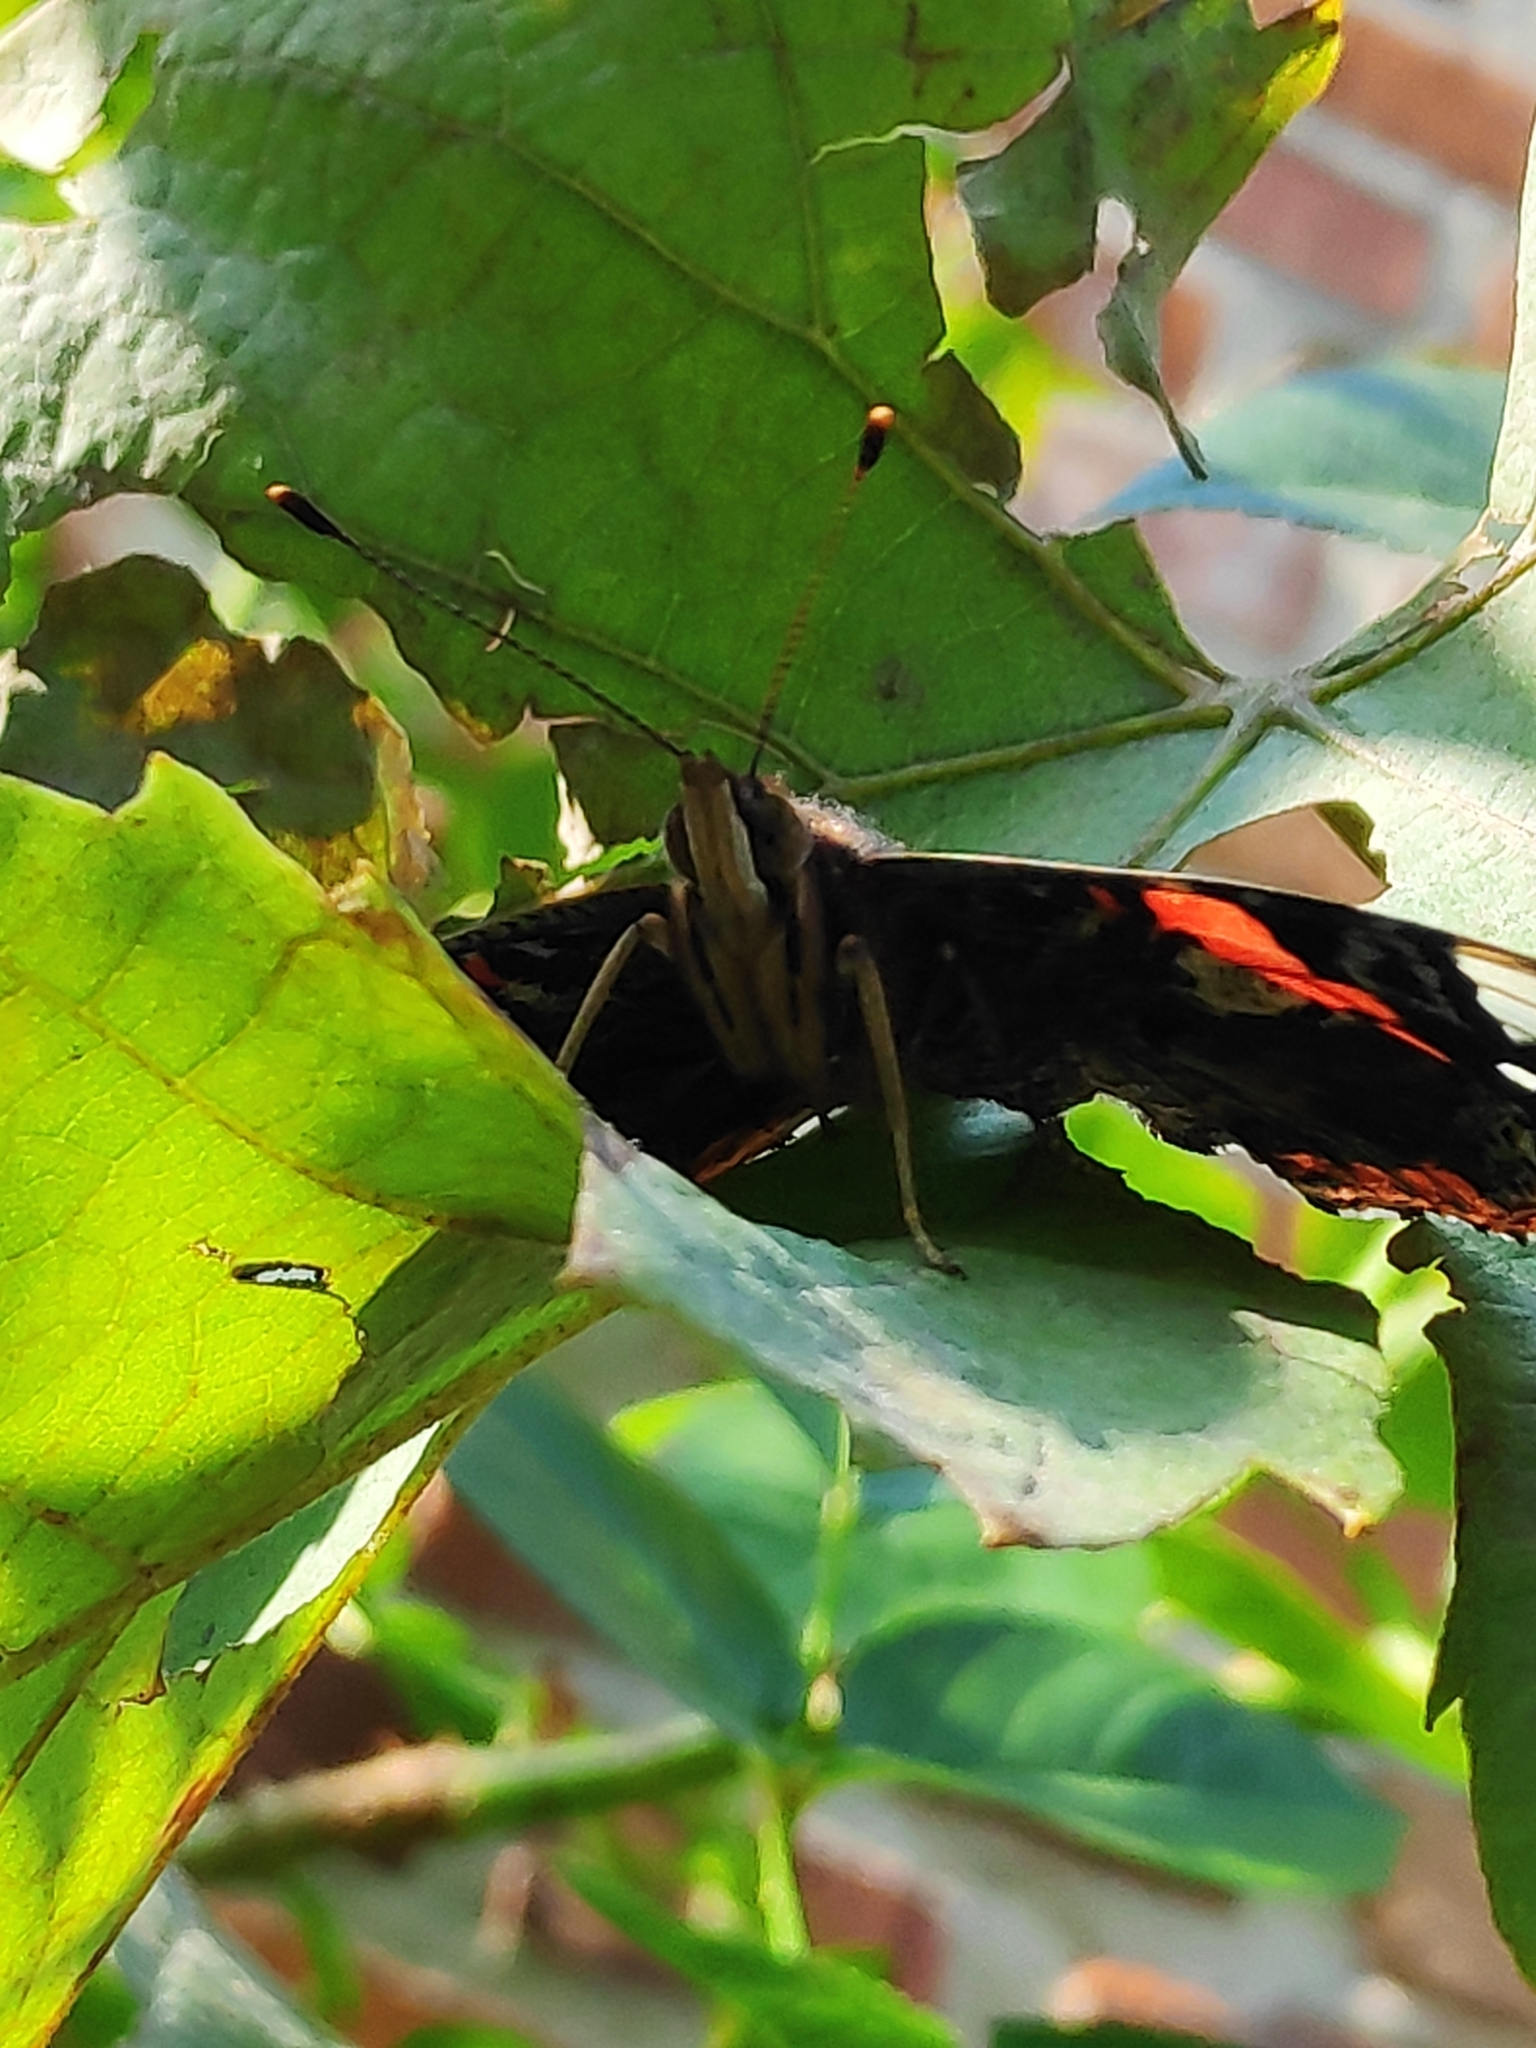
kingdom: Animalia
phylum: Arthropoda
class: Insecta
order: Lepidoptera
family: Nymphalidae
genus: Vanessa
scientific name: Vanessa atalanta
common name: Red admiral
